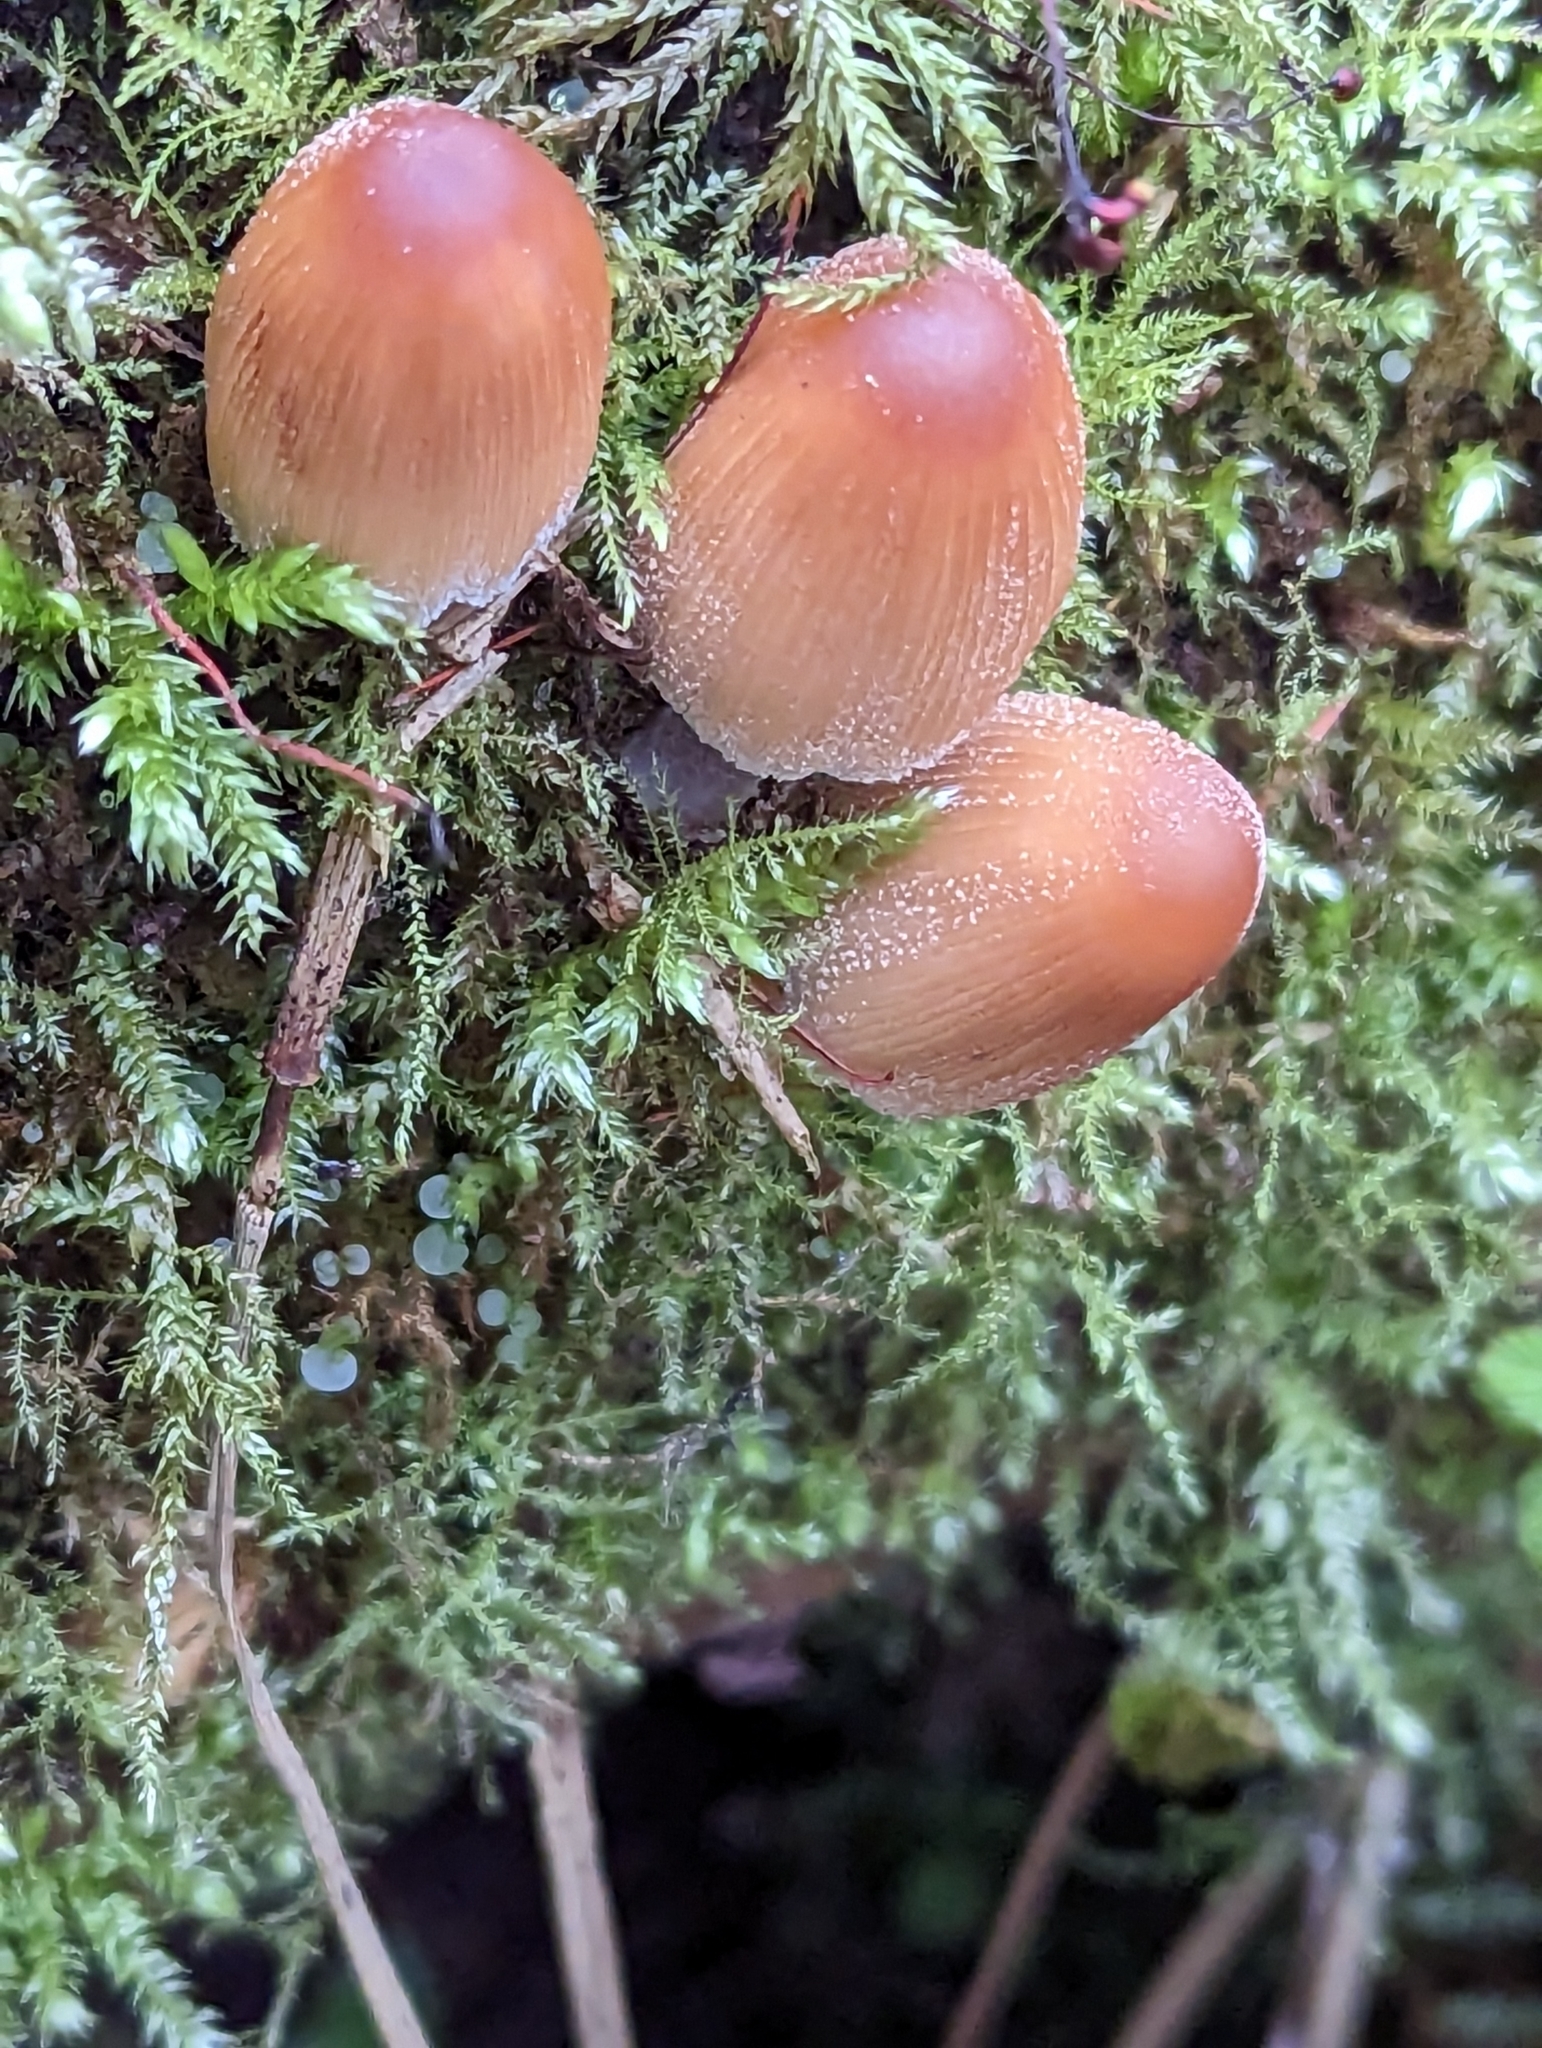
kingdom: Fungi
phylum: Basidiomycota
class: Agaricomycetes
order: Agaricales
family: Psathyrellaceae
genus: Coprinellus
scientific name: Coprinellus micaceus
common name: Glistening ink-cap
